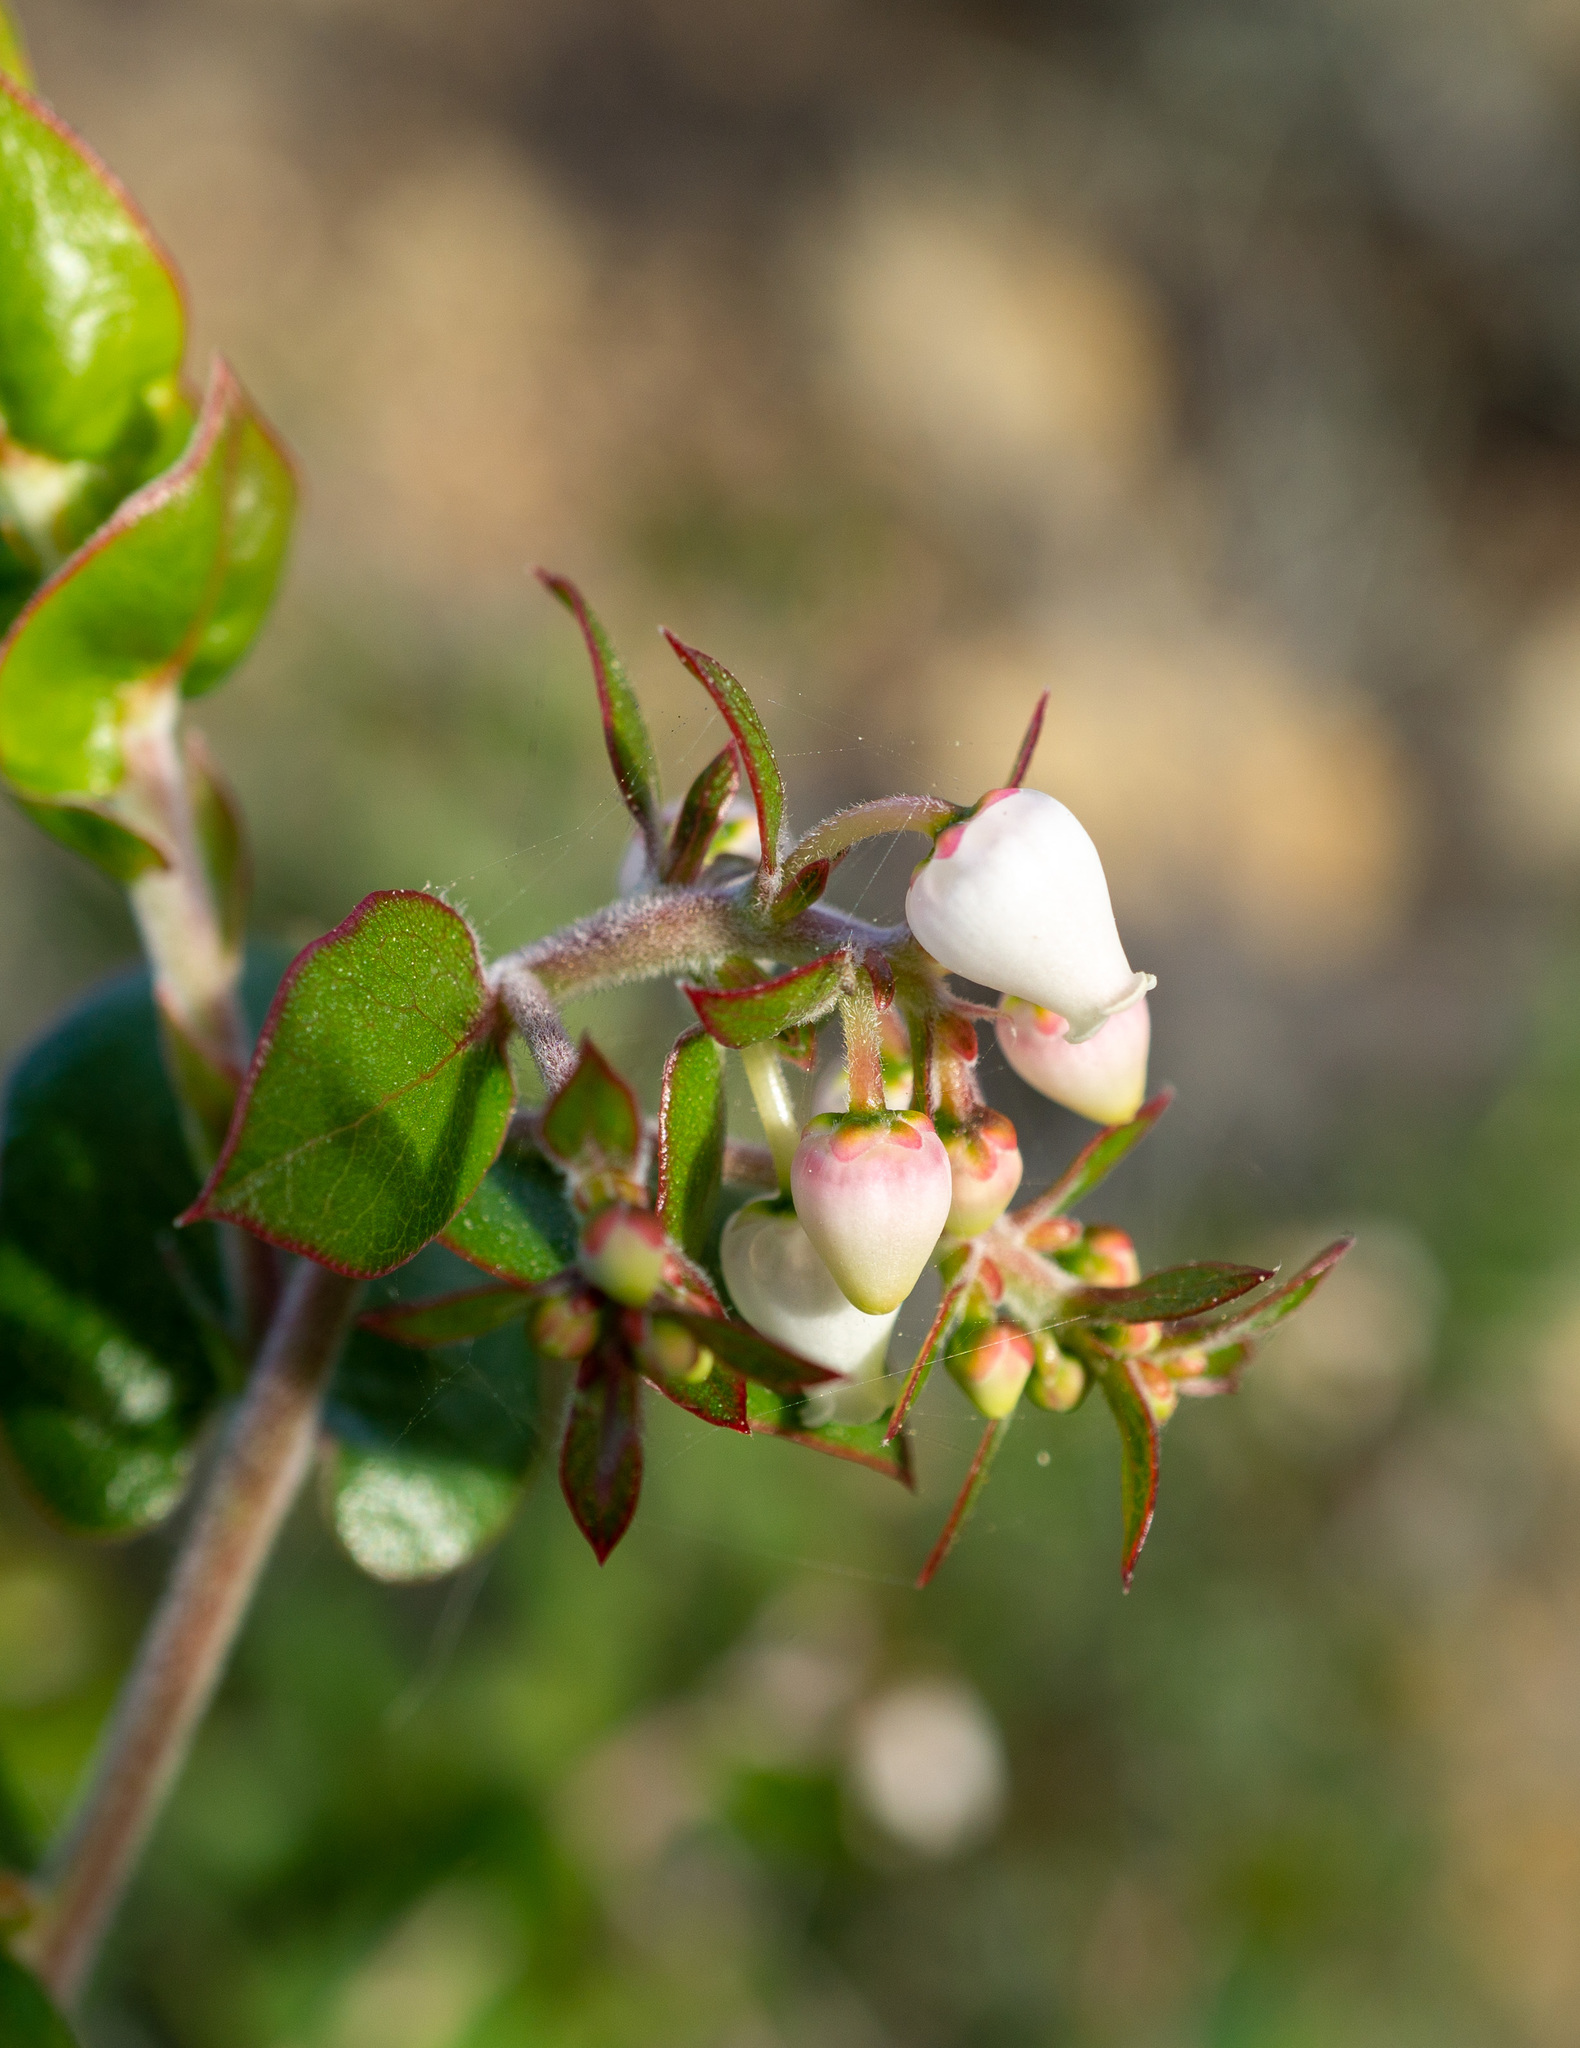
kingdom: Plantae
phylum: Tracheophyta
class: Magnoliopsida
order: Ericales
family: Ericaceae
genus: Arctostaphylos
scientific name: Arctostaphylos osoensis
